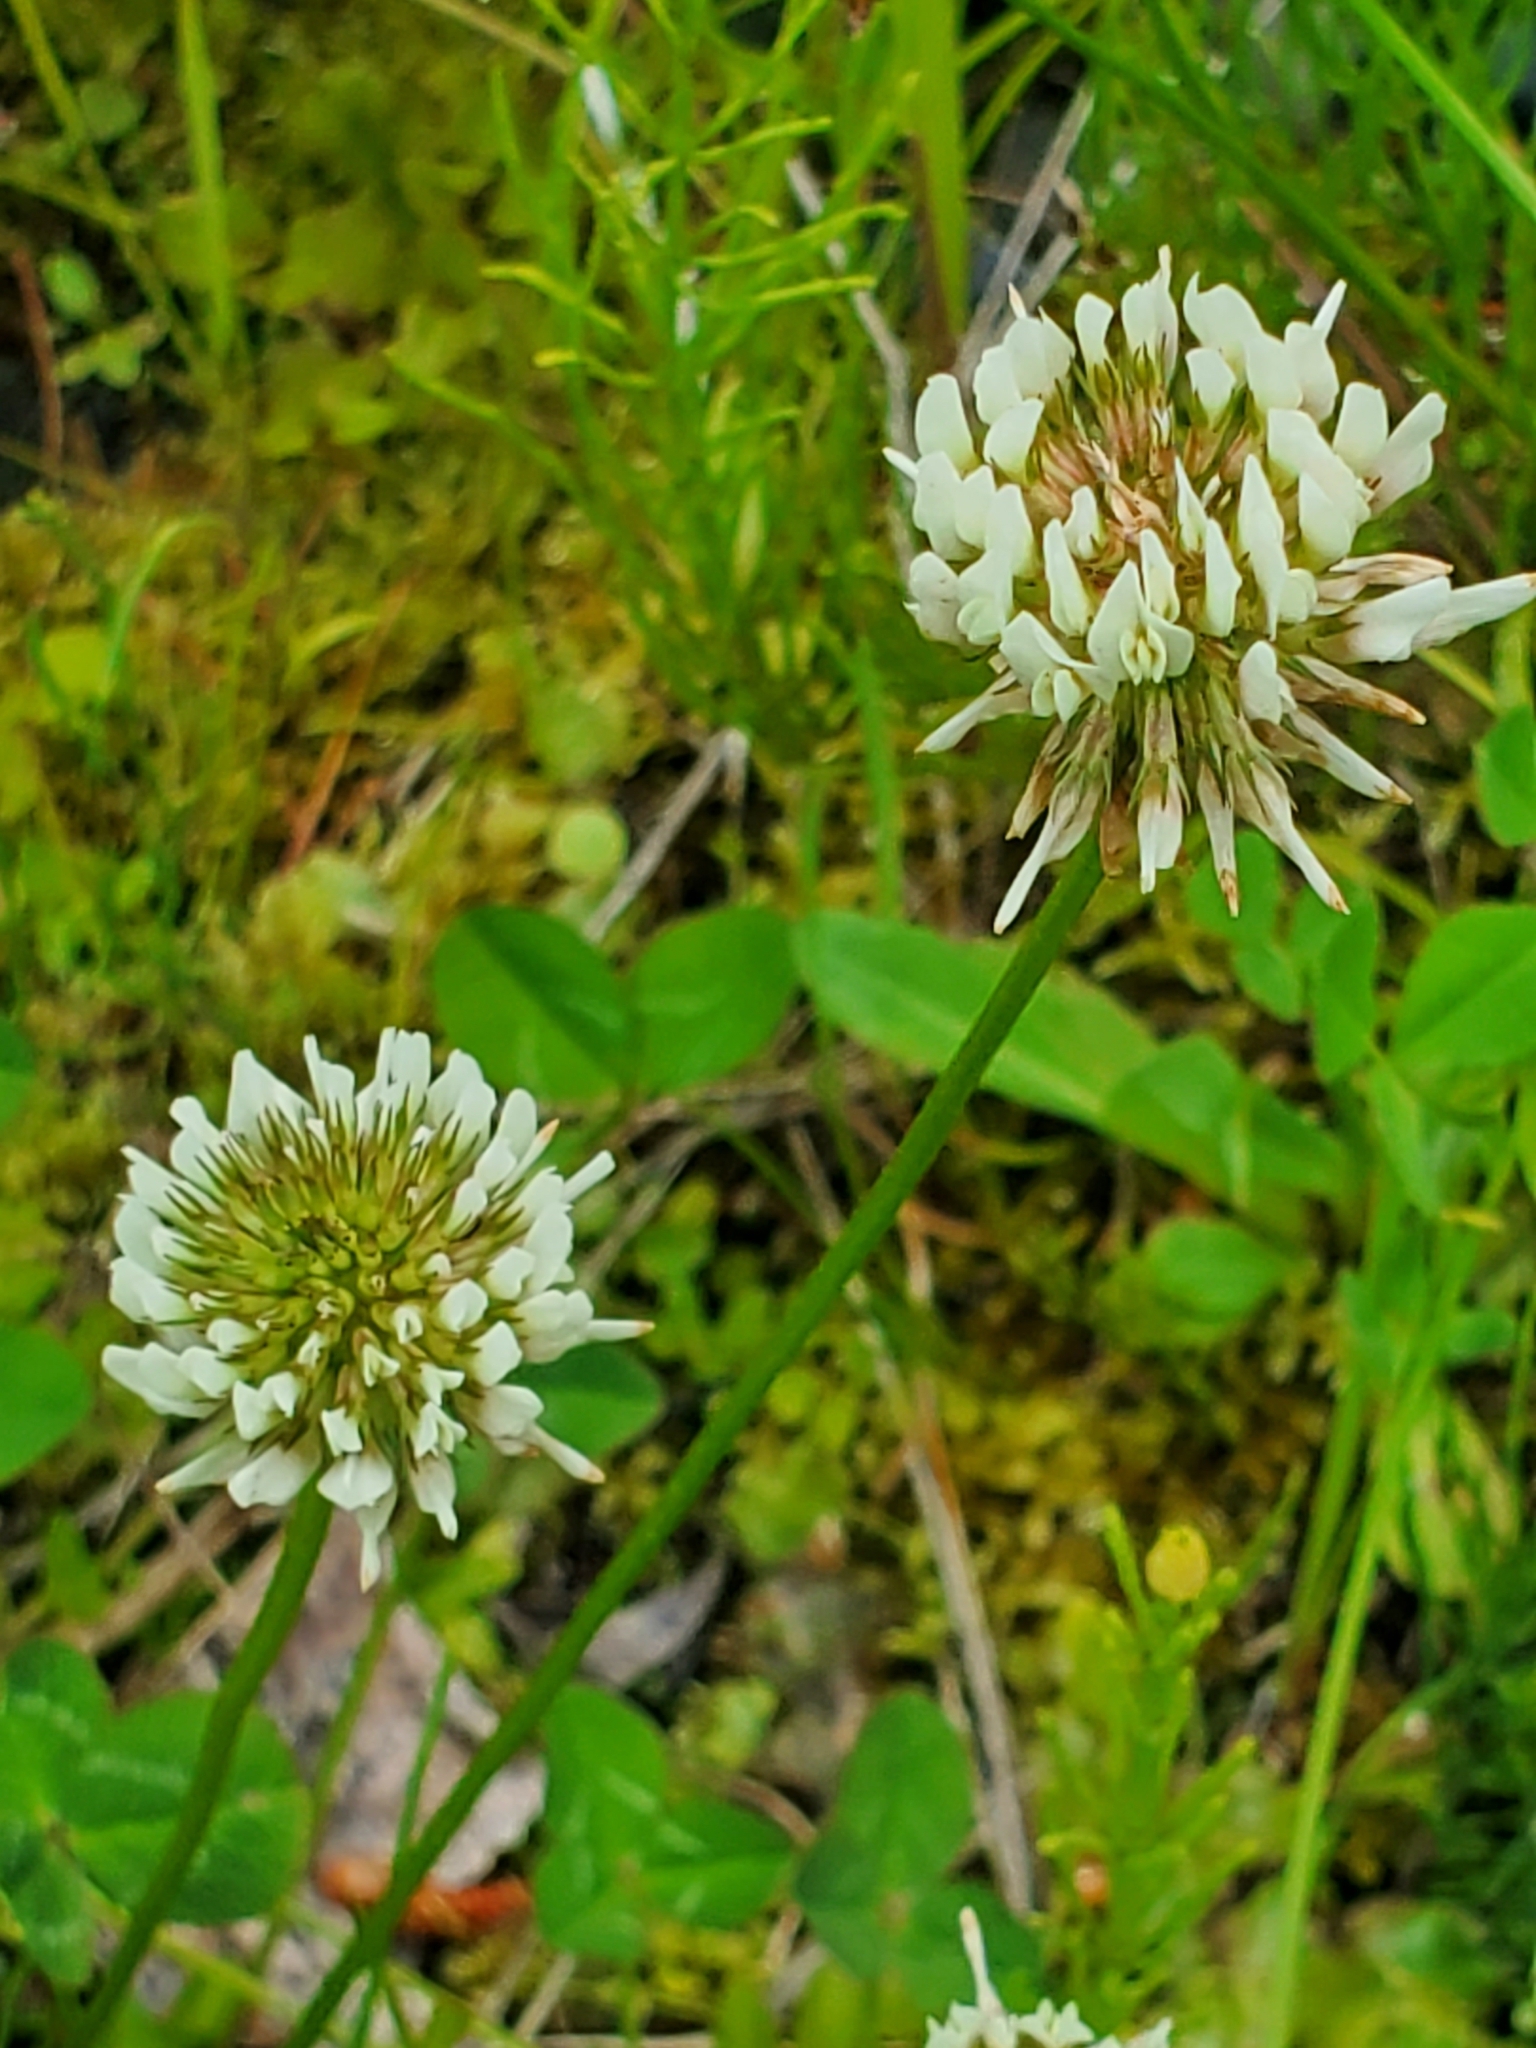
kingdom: Plantae
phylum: Tracheophyta
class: Magnoliopsida
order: Fabales
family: Fabaceae
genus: Trifolium
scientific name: Trifolium repens
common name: White clover
